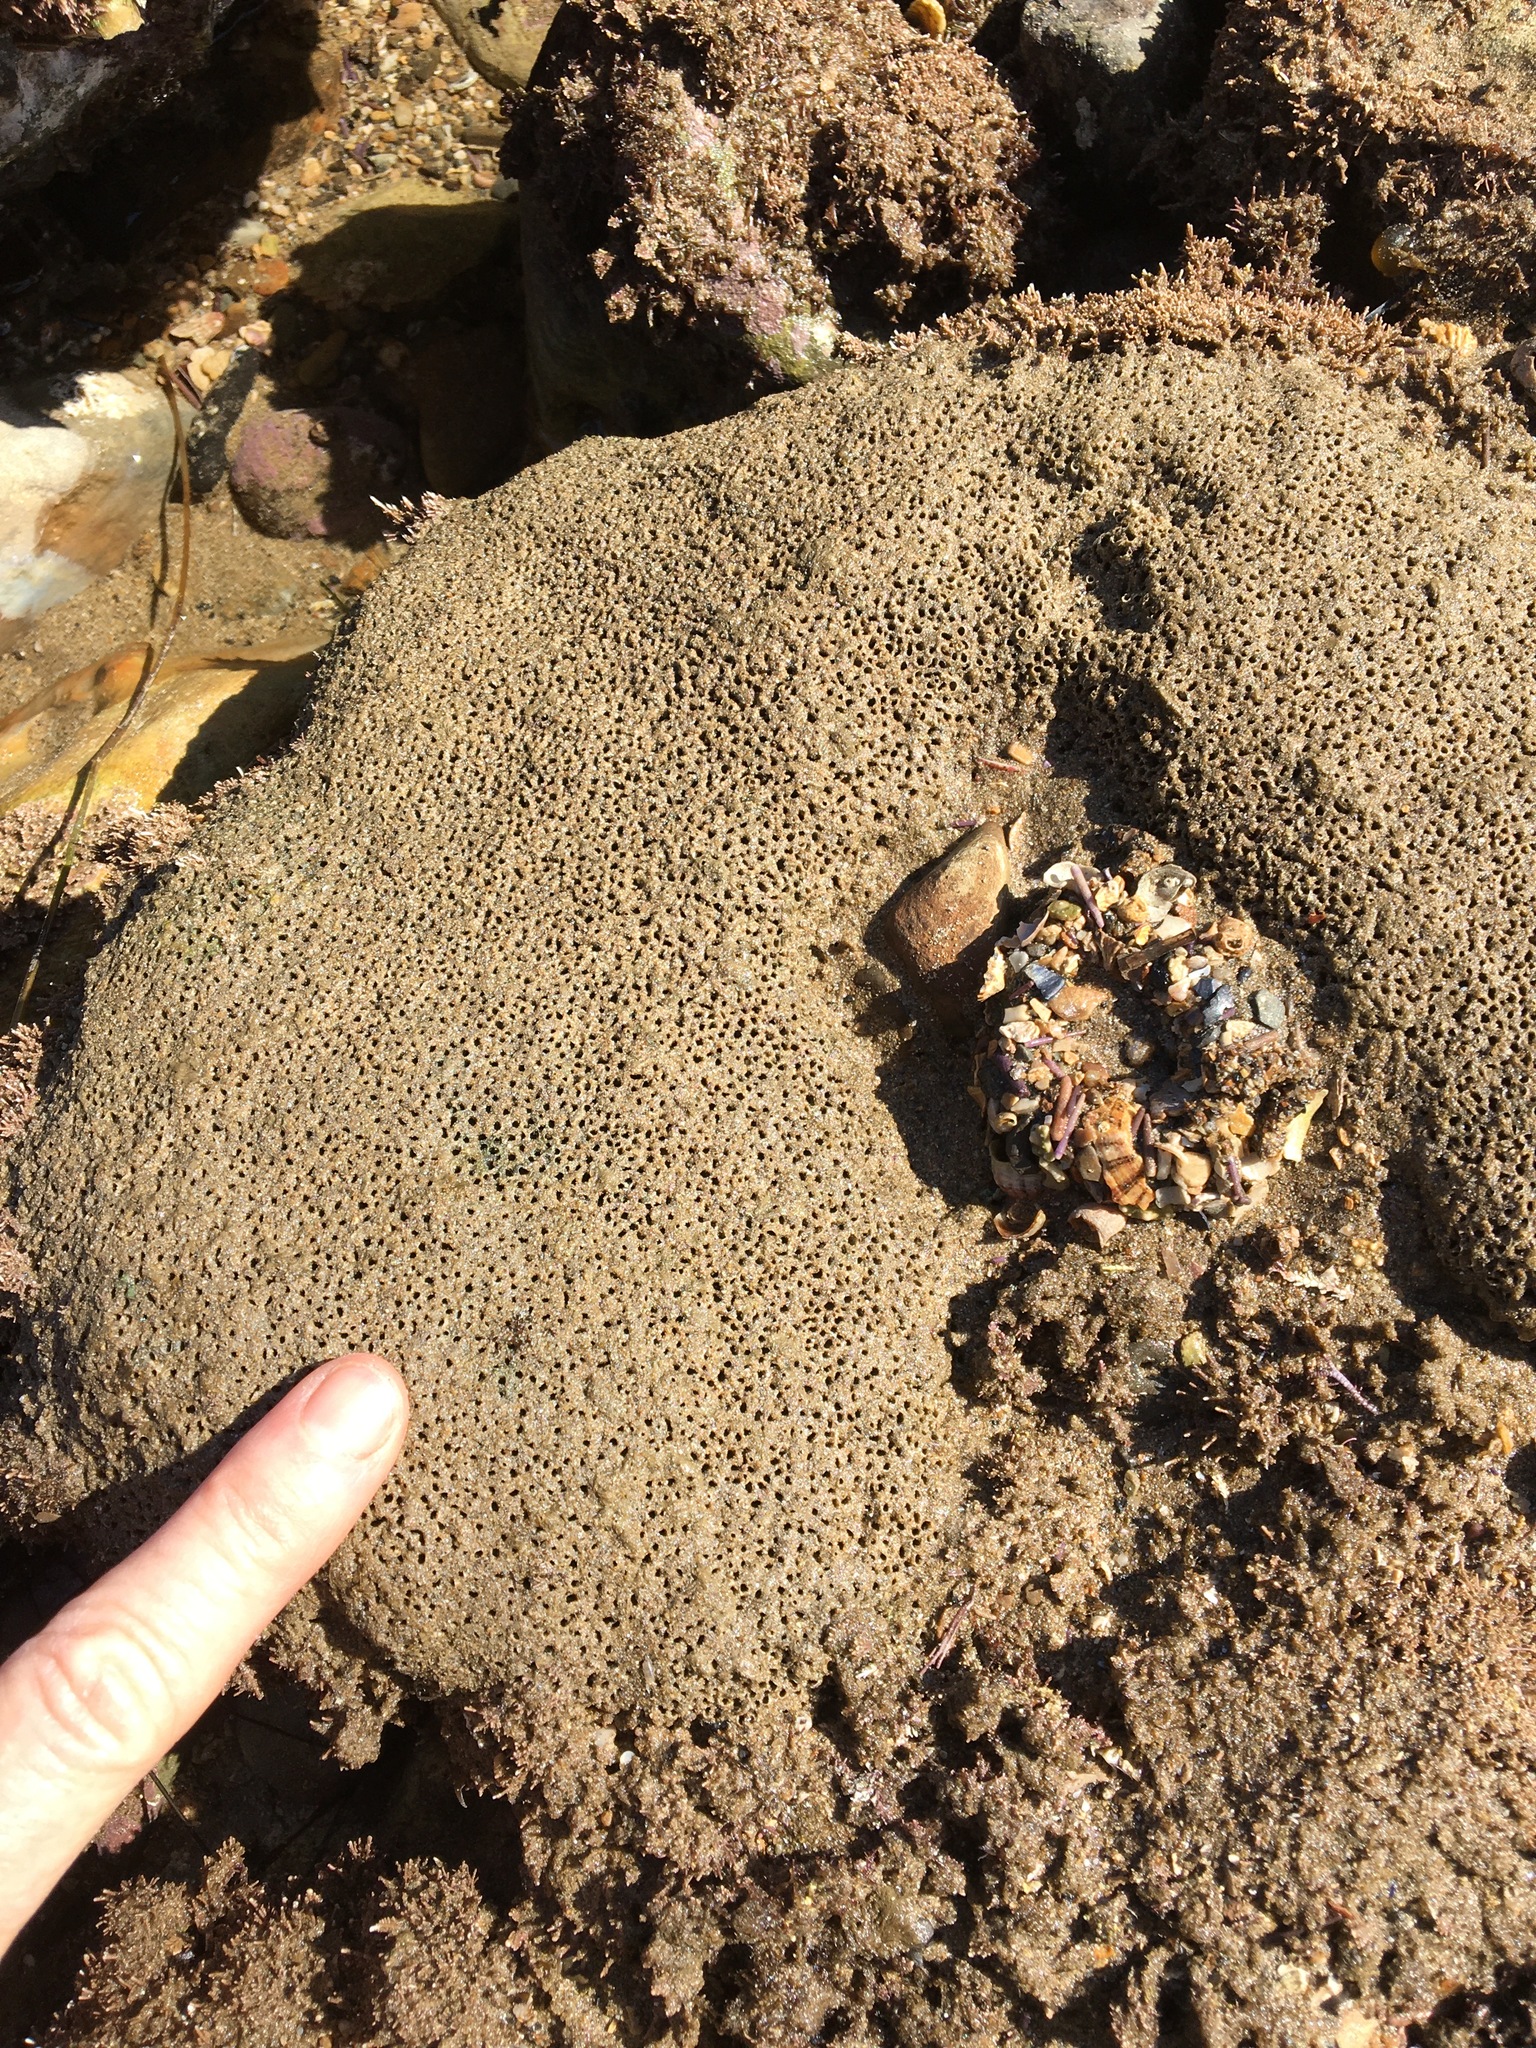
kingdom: Animalia
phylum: Annelida
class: Polychaeta
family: Cirratulidae
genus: Dodecaceria
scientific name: Dodecaceria pacifica
